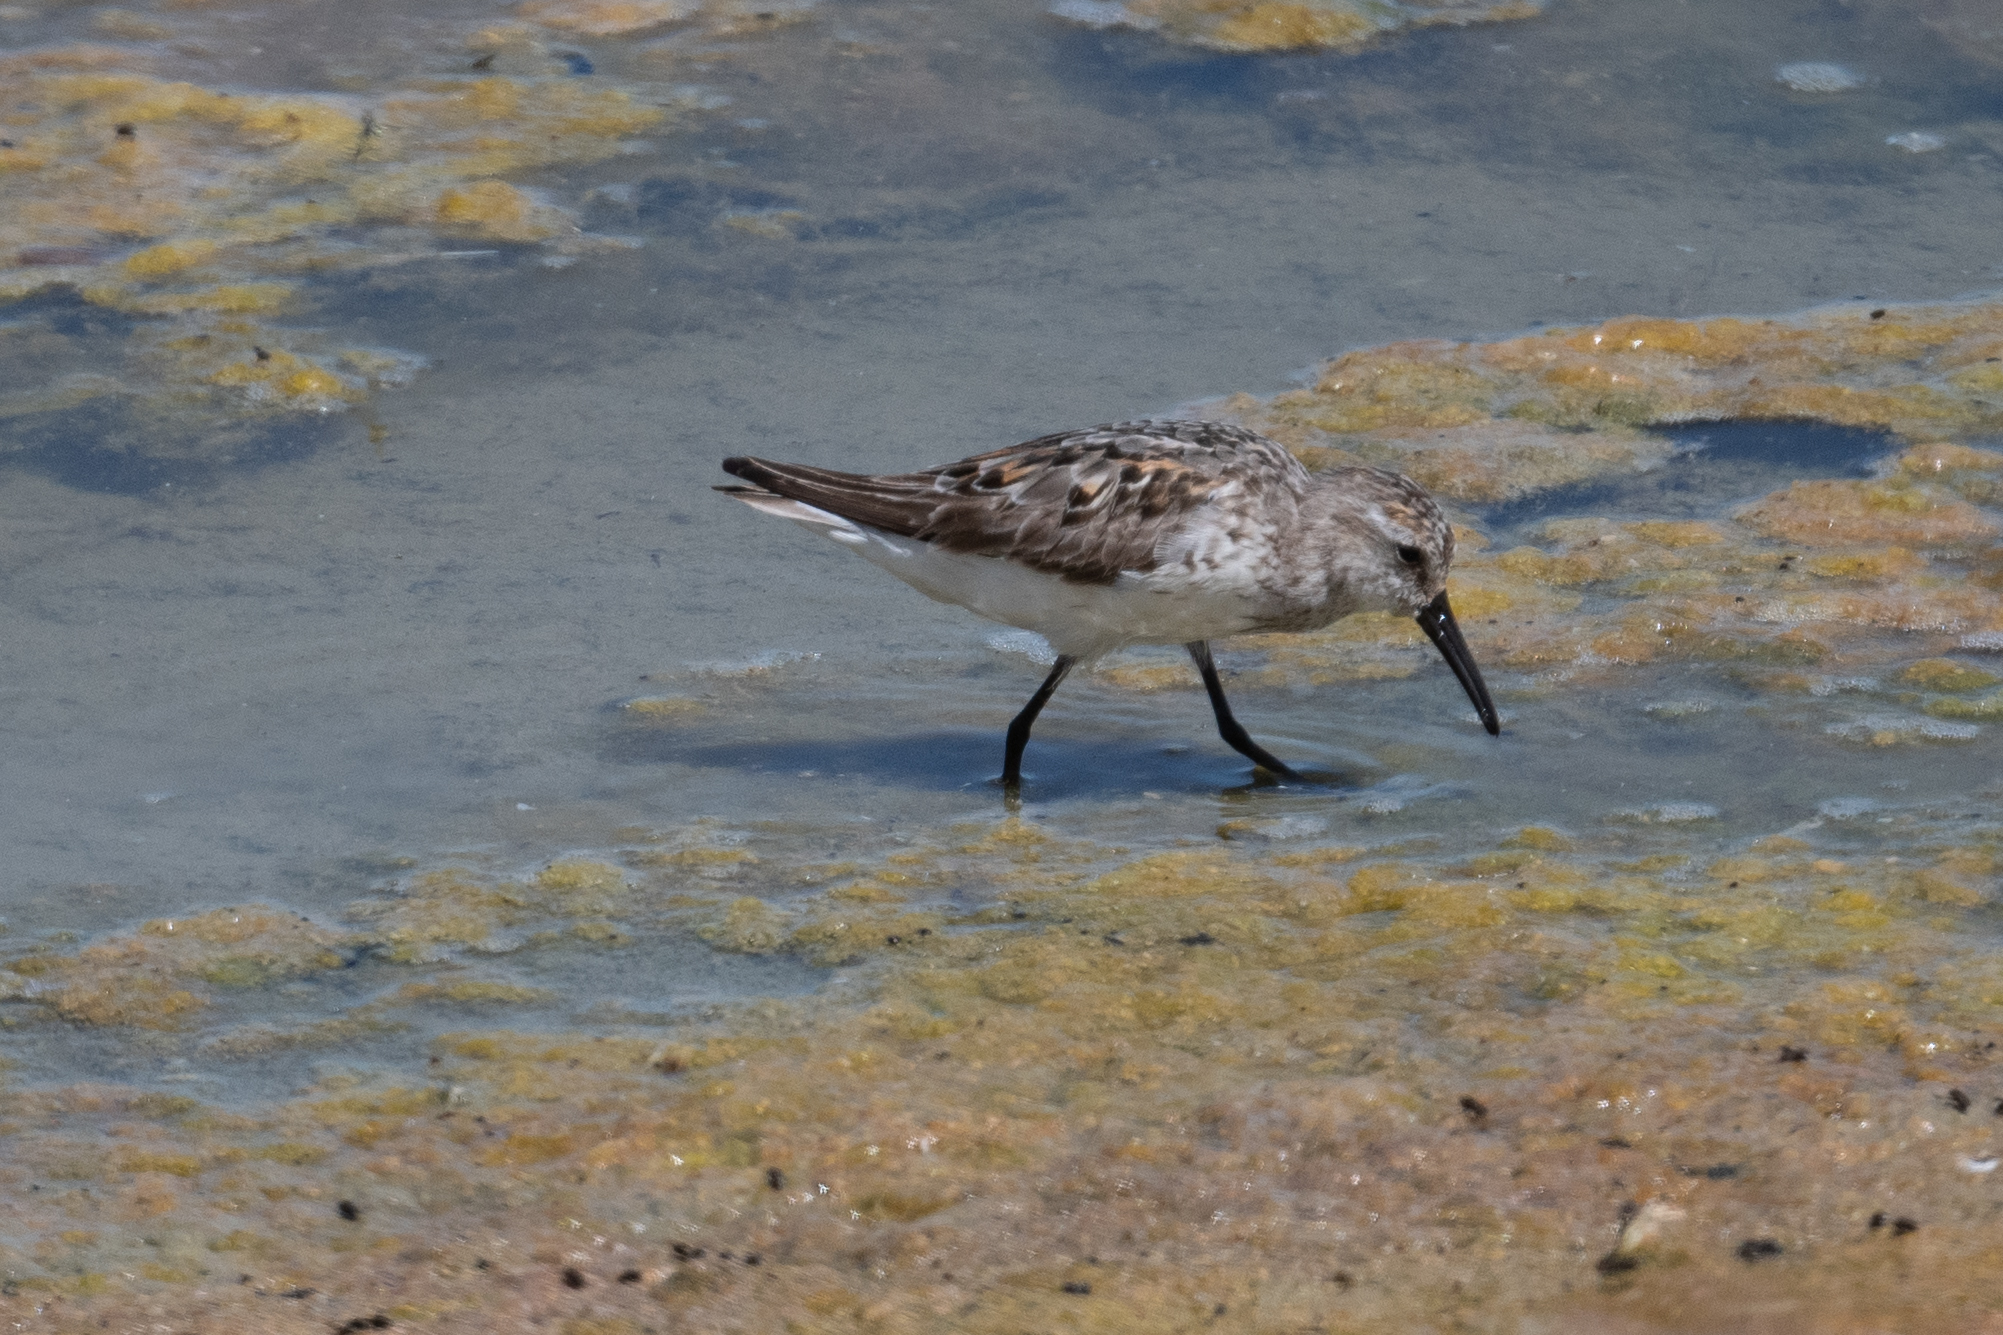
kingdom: Animalia
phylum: Chordata
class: Aves
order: Charadriiformes
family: Scolopacidae
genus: Calidris
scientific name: Calidris mauri
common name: Western sandpiper
